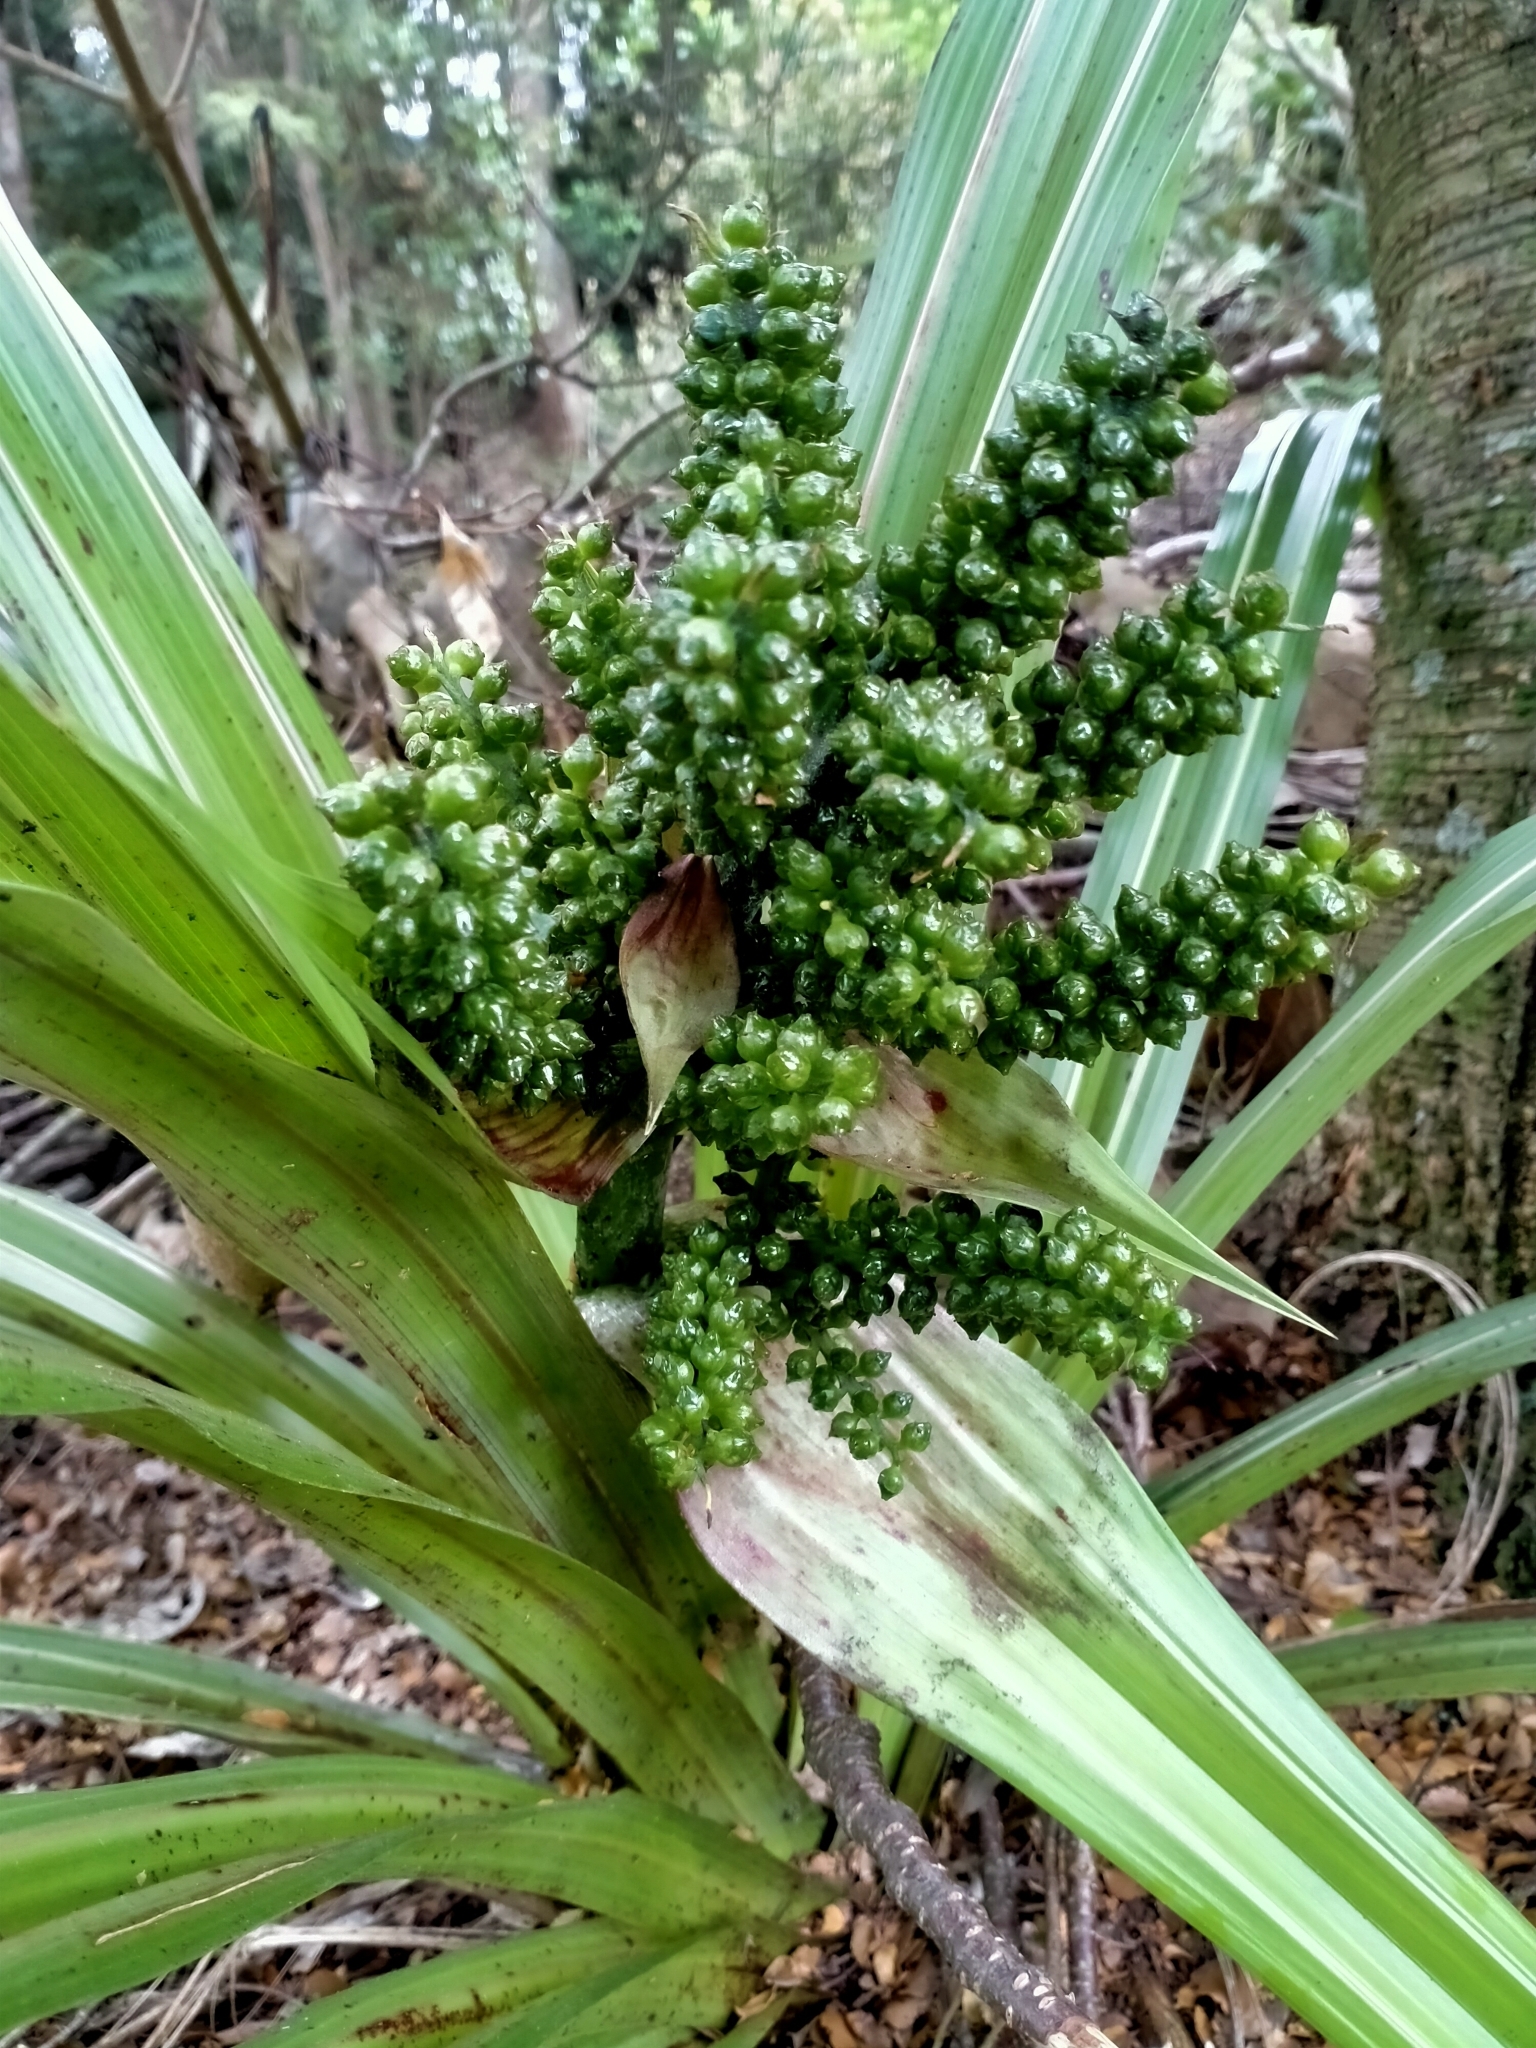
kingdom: Plantae
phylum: Tracheophyta
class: Liliopsida
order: Asparagales
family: Asteliaceae
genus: Astelia
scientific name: Astelia fragrans
